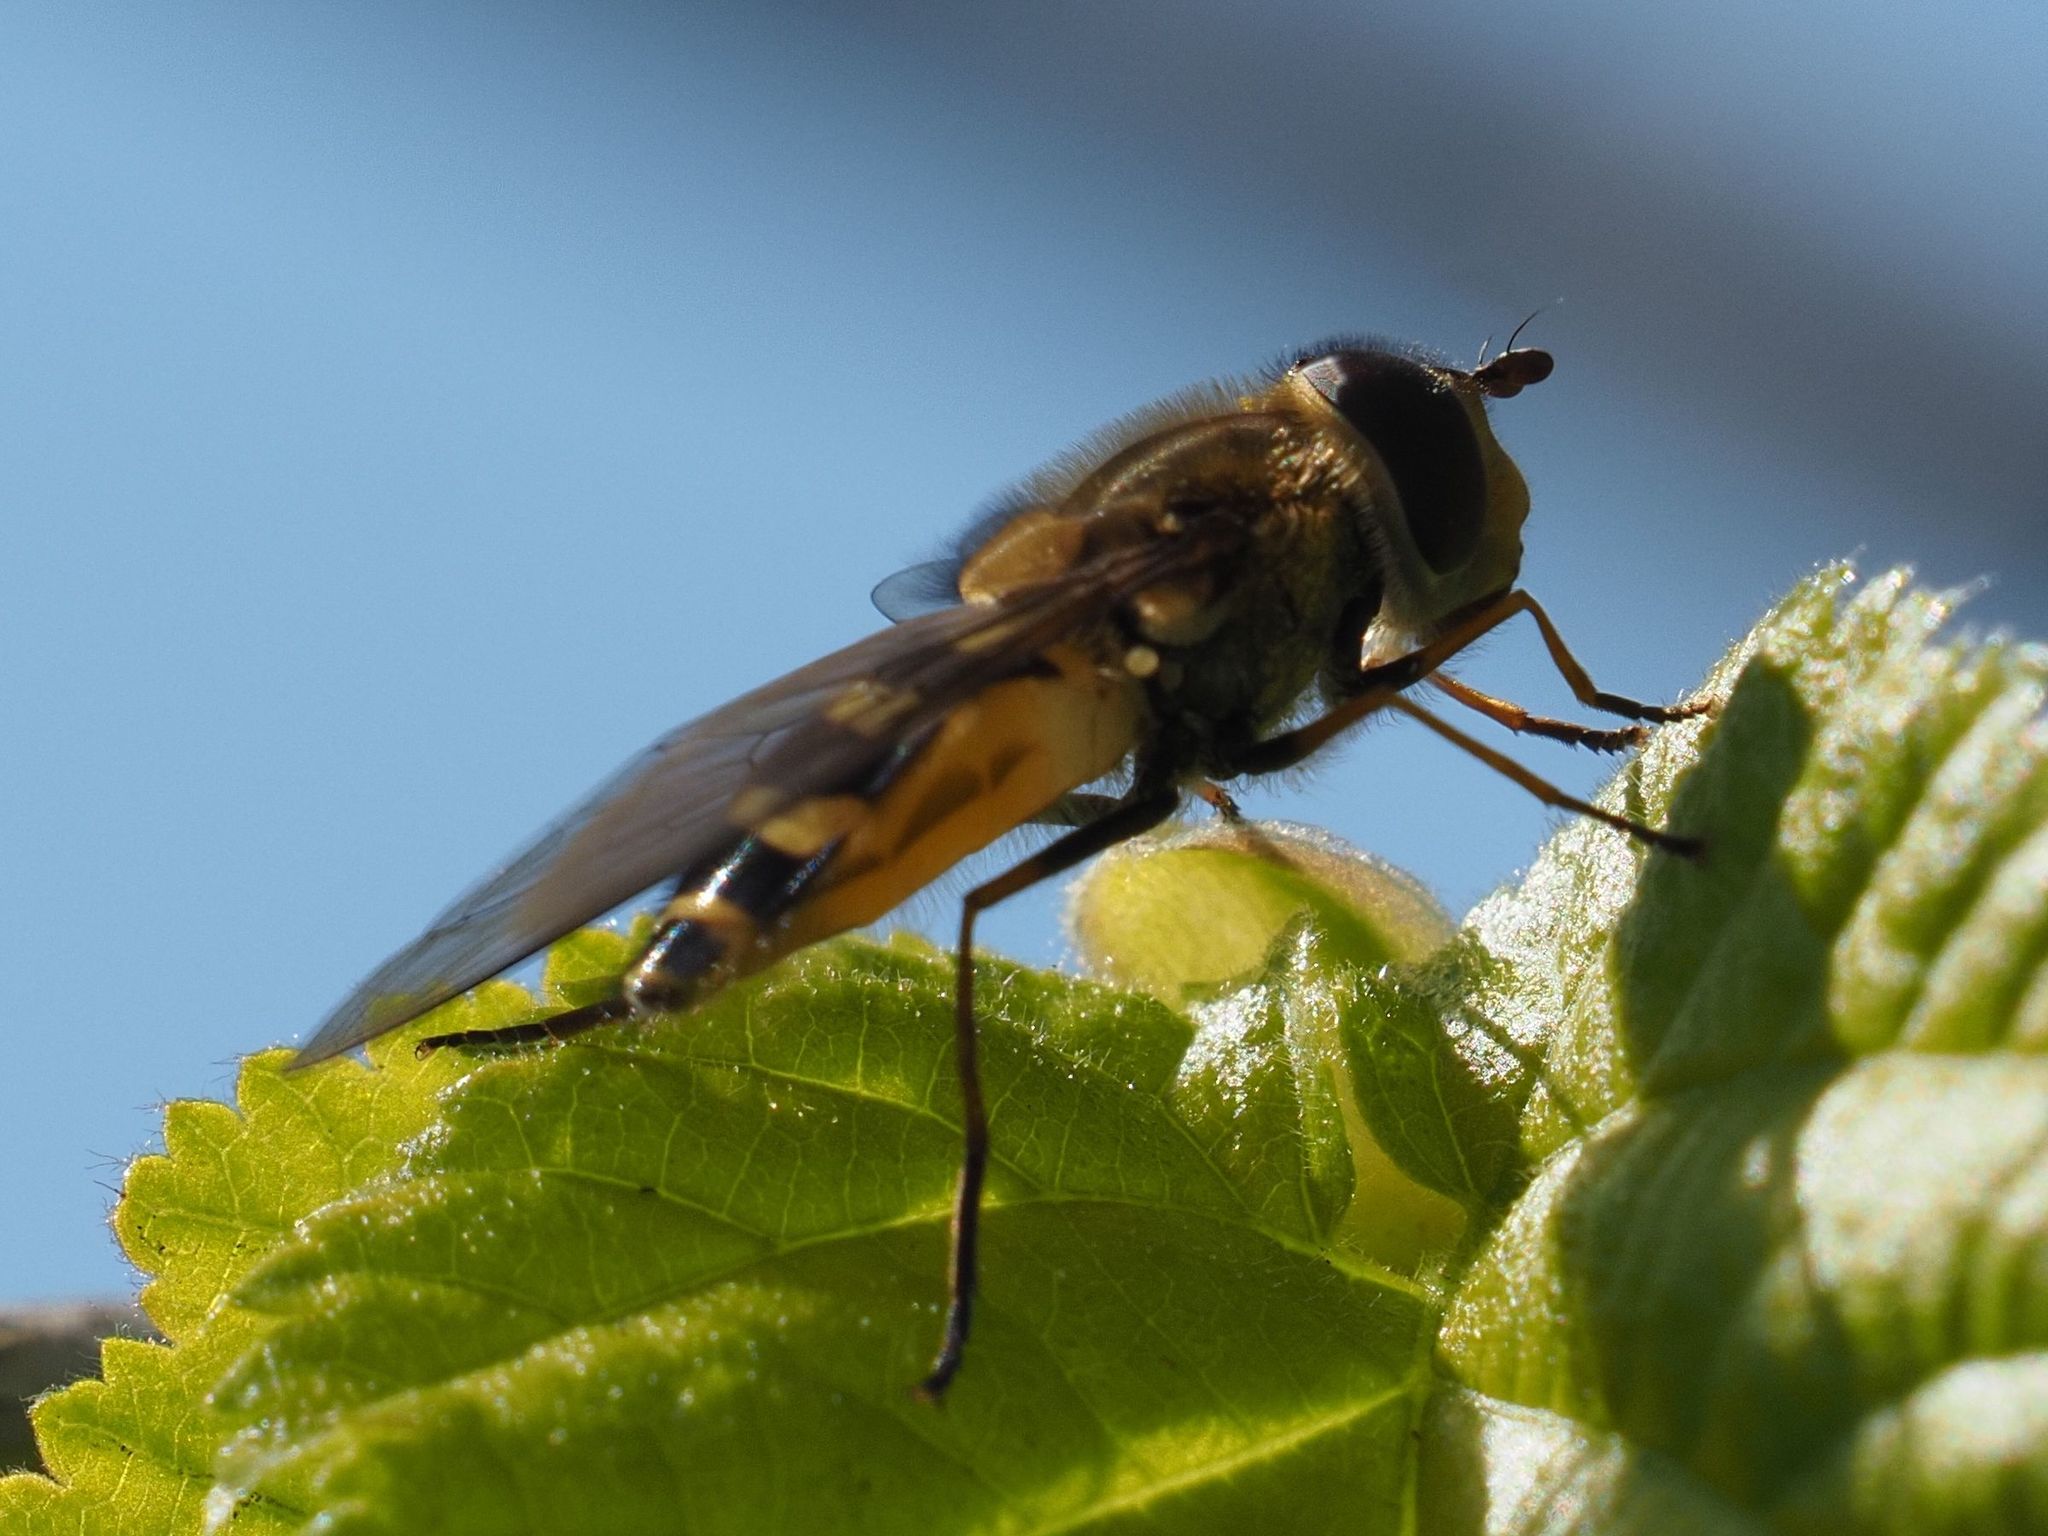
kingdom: Animalia
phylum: Arthropoda
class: Insecta
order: Diptera
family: Syrphidae
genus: Syrphus
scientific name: Syrphus torvus
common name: Hairy-eyed flower fly
